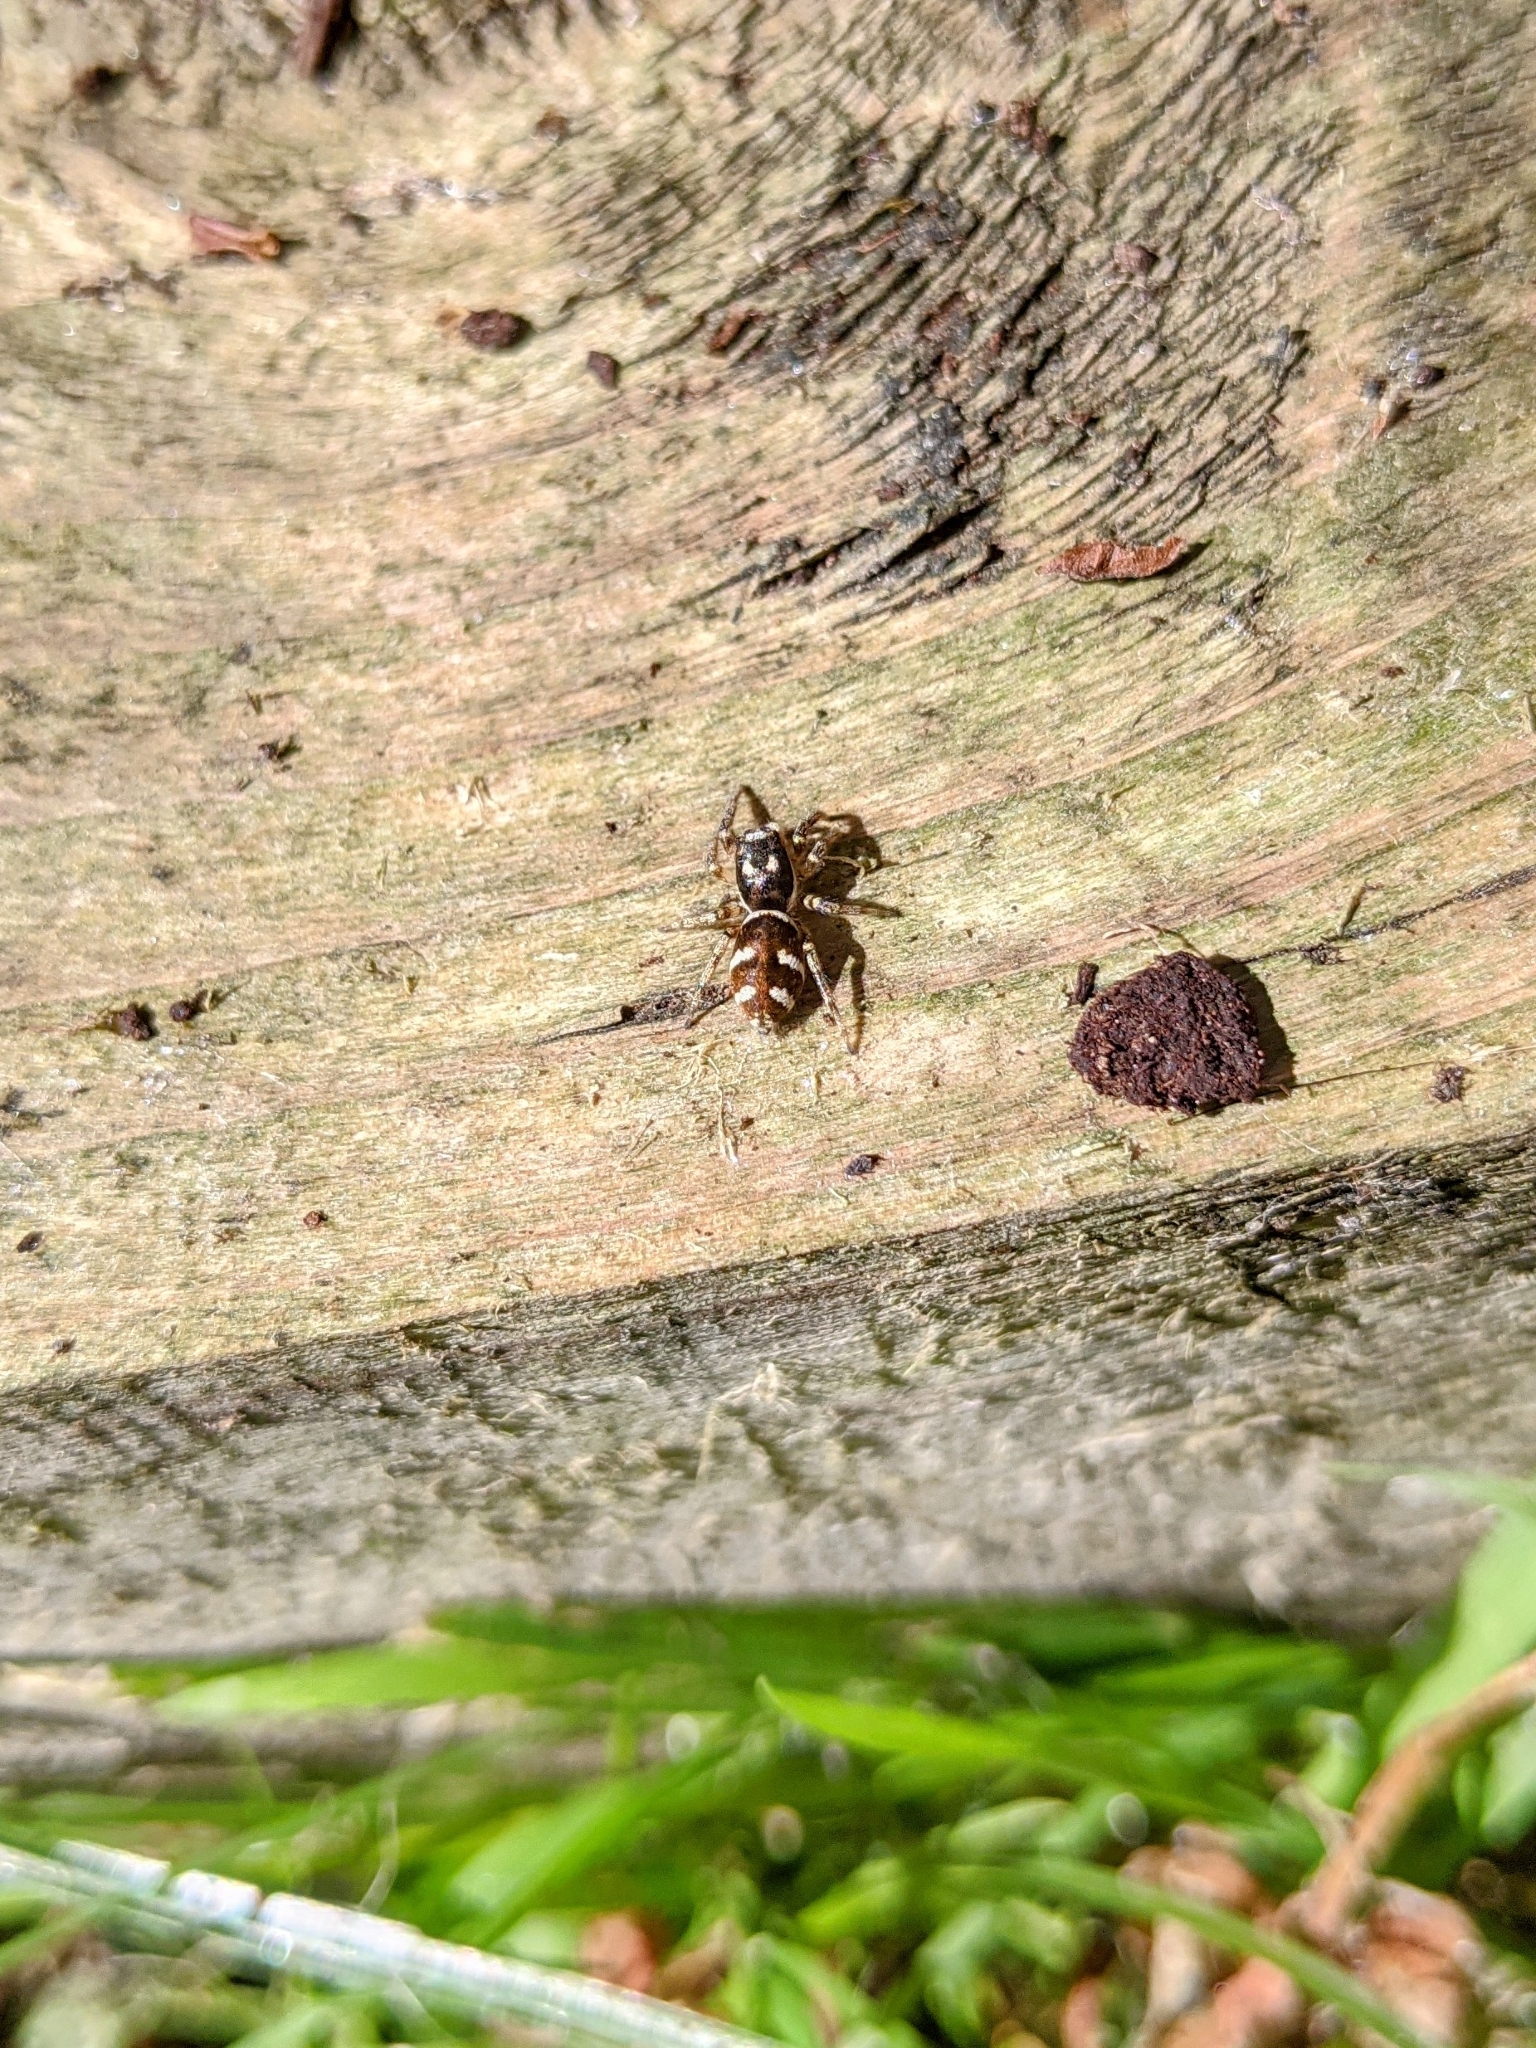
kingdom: Animalia
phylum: Arthropoda
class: Arachnida
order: Araneae
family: Salticidae
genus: Salticus
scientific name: Salticus scenicus
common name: Zebra jumper
